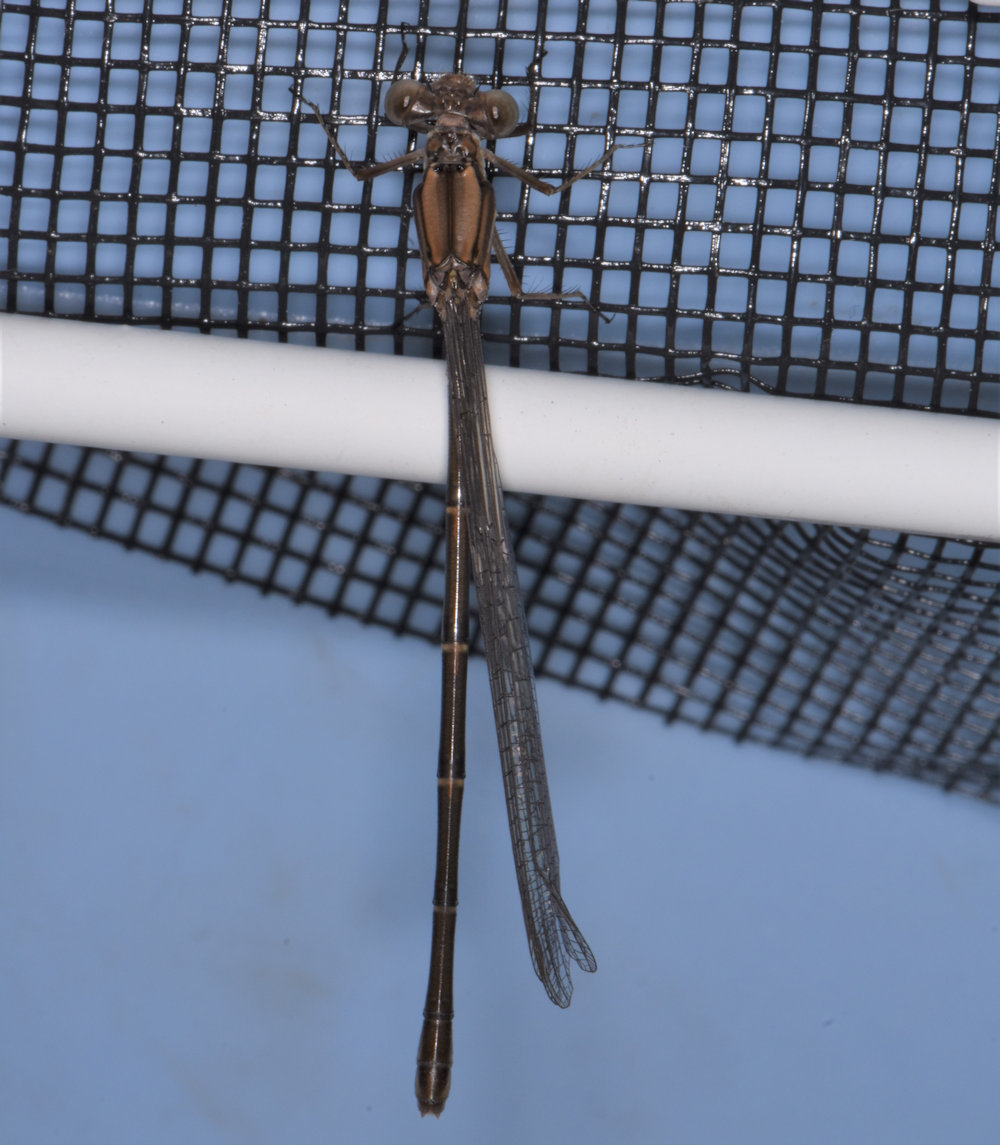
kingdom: Animalia
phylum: Arthropoda
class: Insecta
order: Odonata
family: Coenagrionidae
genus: Argia
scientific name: Argia moesta
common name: Powdered dancer
